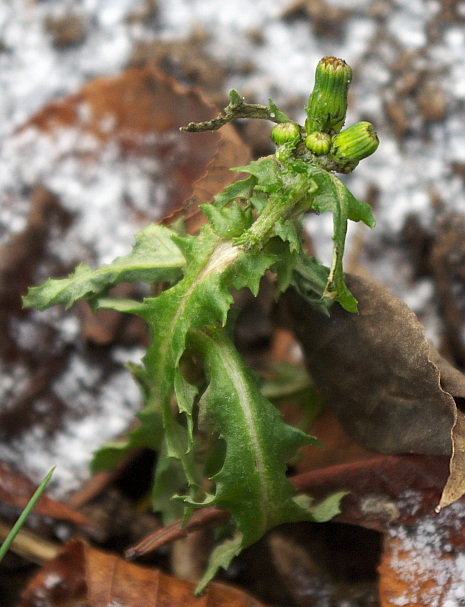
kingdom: Plantae
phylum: Tracheophyta
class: Magnoliopsida
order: Asterales
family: Asteraceae
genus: Senecio
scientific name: Senecio vulgaris
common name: Old-man-in-the-spring
